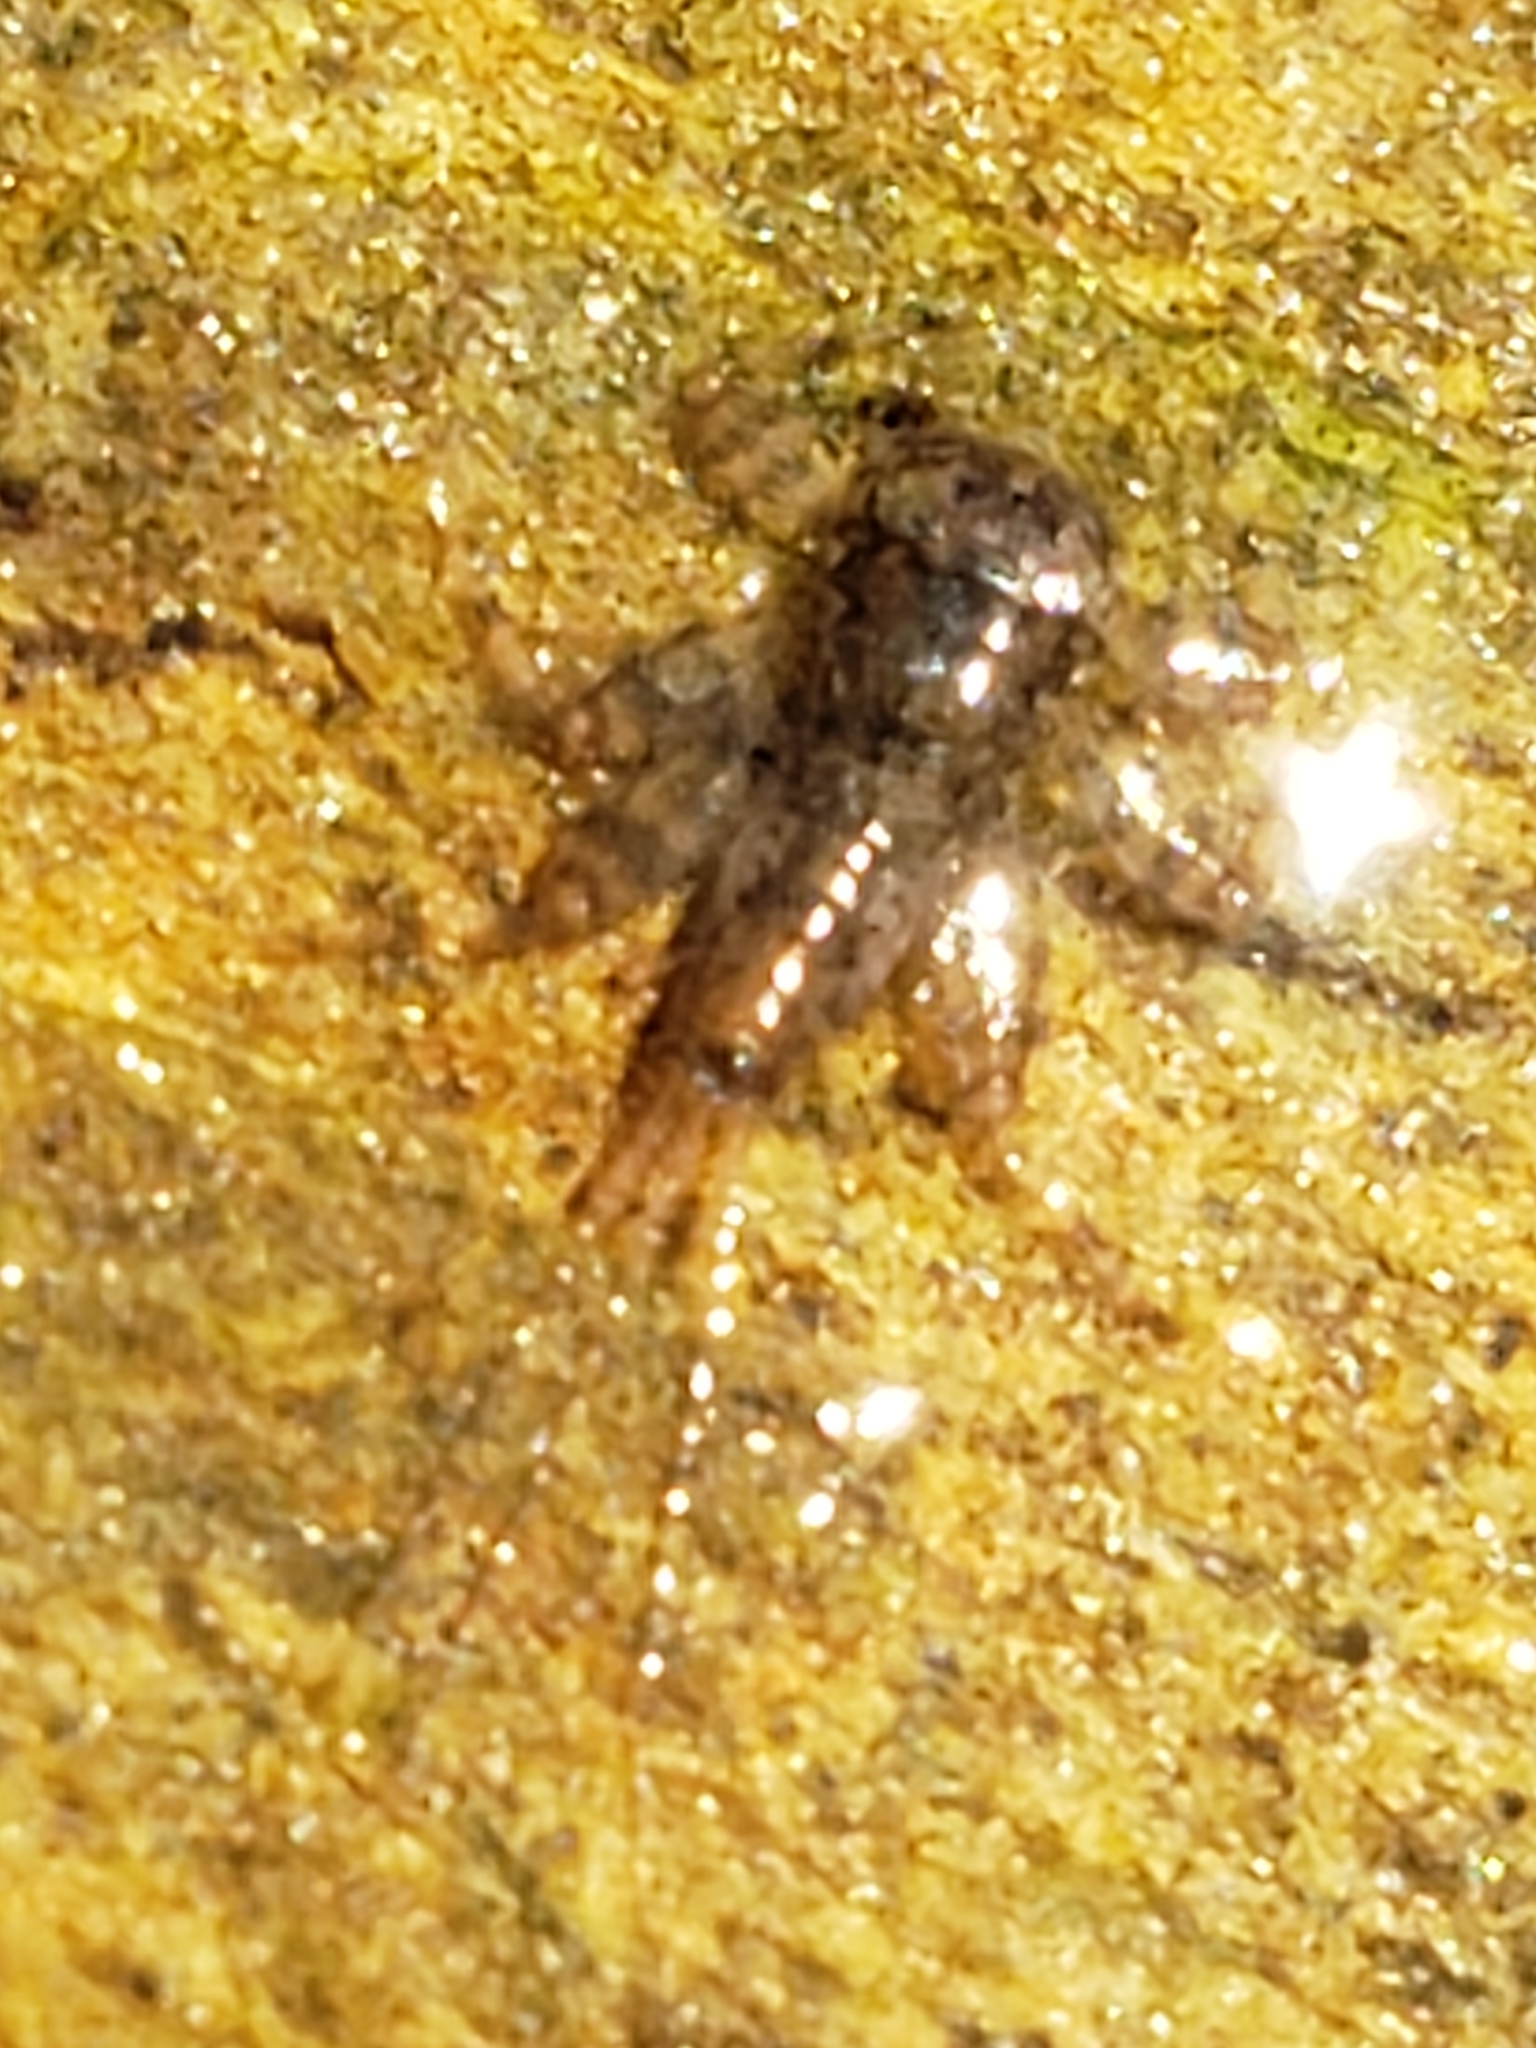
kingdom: Animalia
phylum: Arthropoda
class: Insecta
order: Ephemeroptera
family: Heptageniidae
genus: Stenonema
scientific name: Stenonema femoratum
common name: Dark cahill
